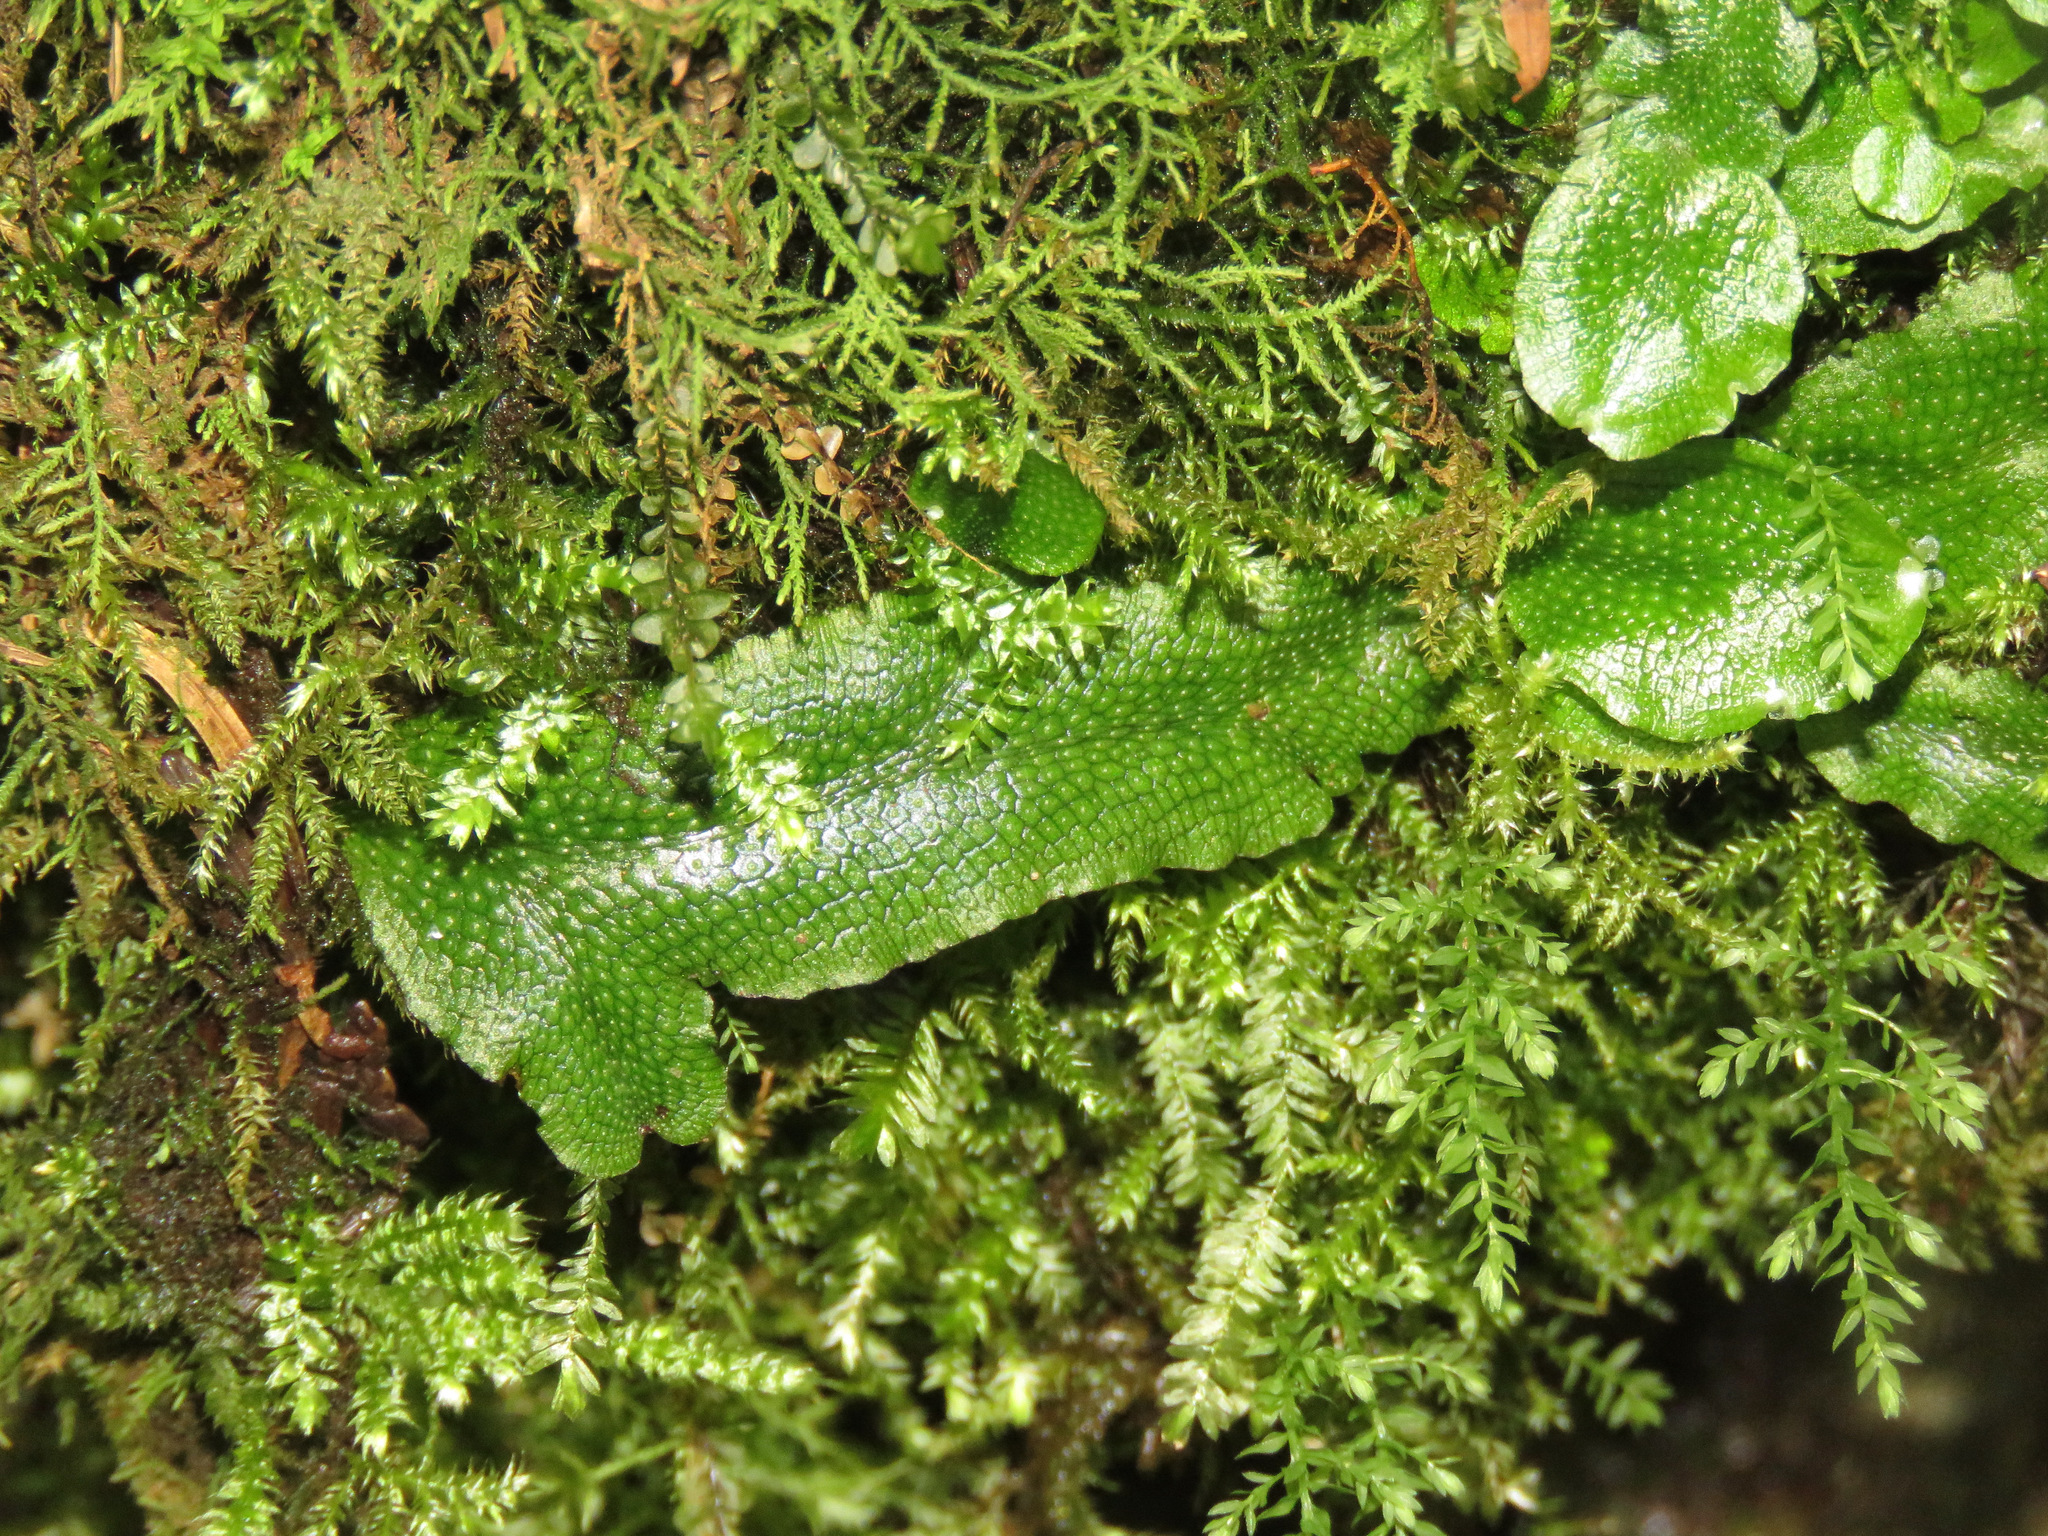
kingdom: Plantae
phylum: Marchantiophyta
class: Marchantiopsida
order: Marchantiales
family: Conocephalaceae
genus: Conocephalum
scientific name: Conocephalum salebrosum
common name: Cat-tongue liverwort
